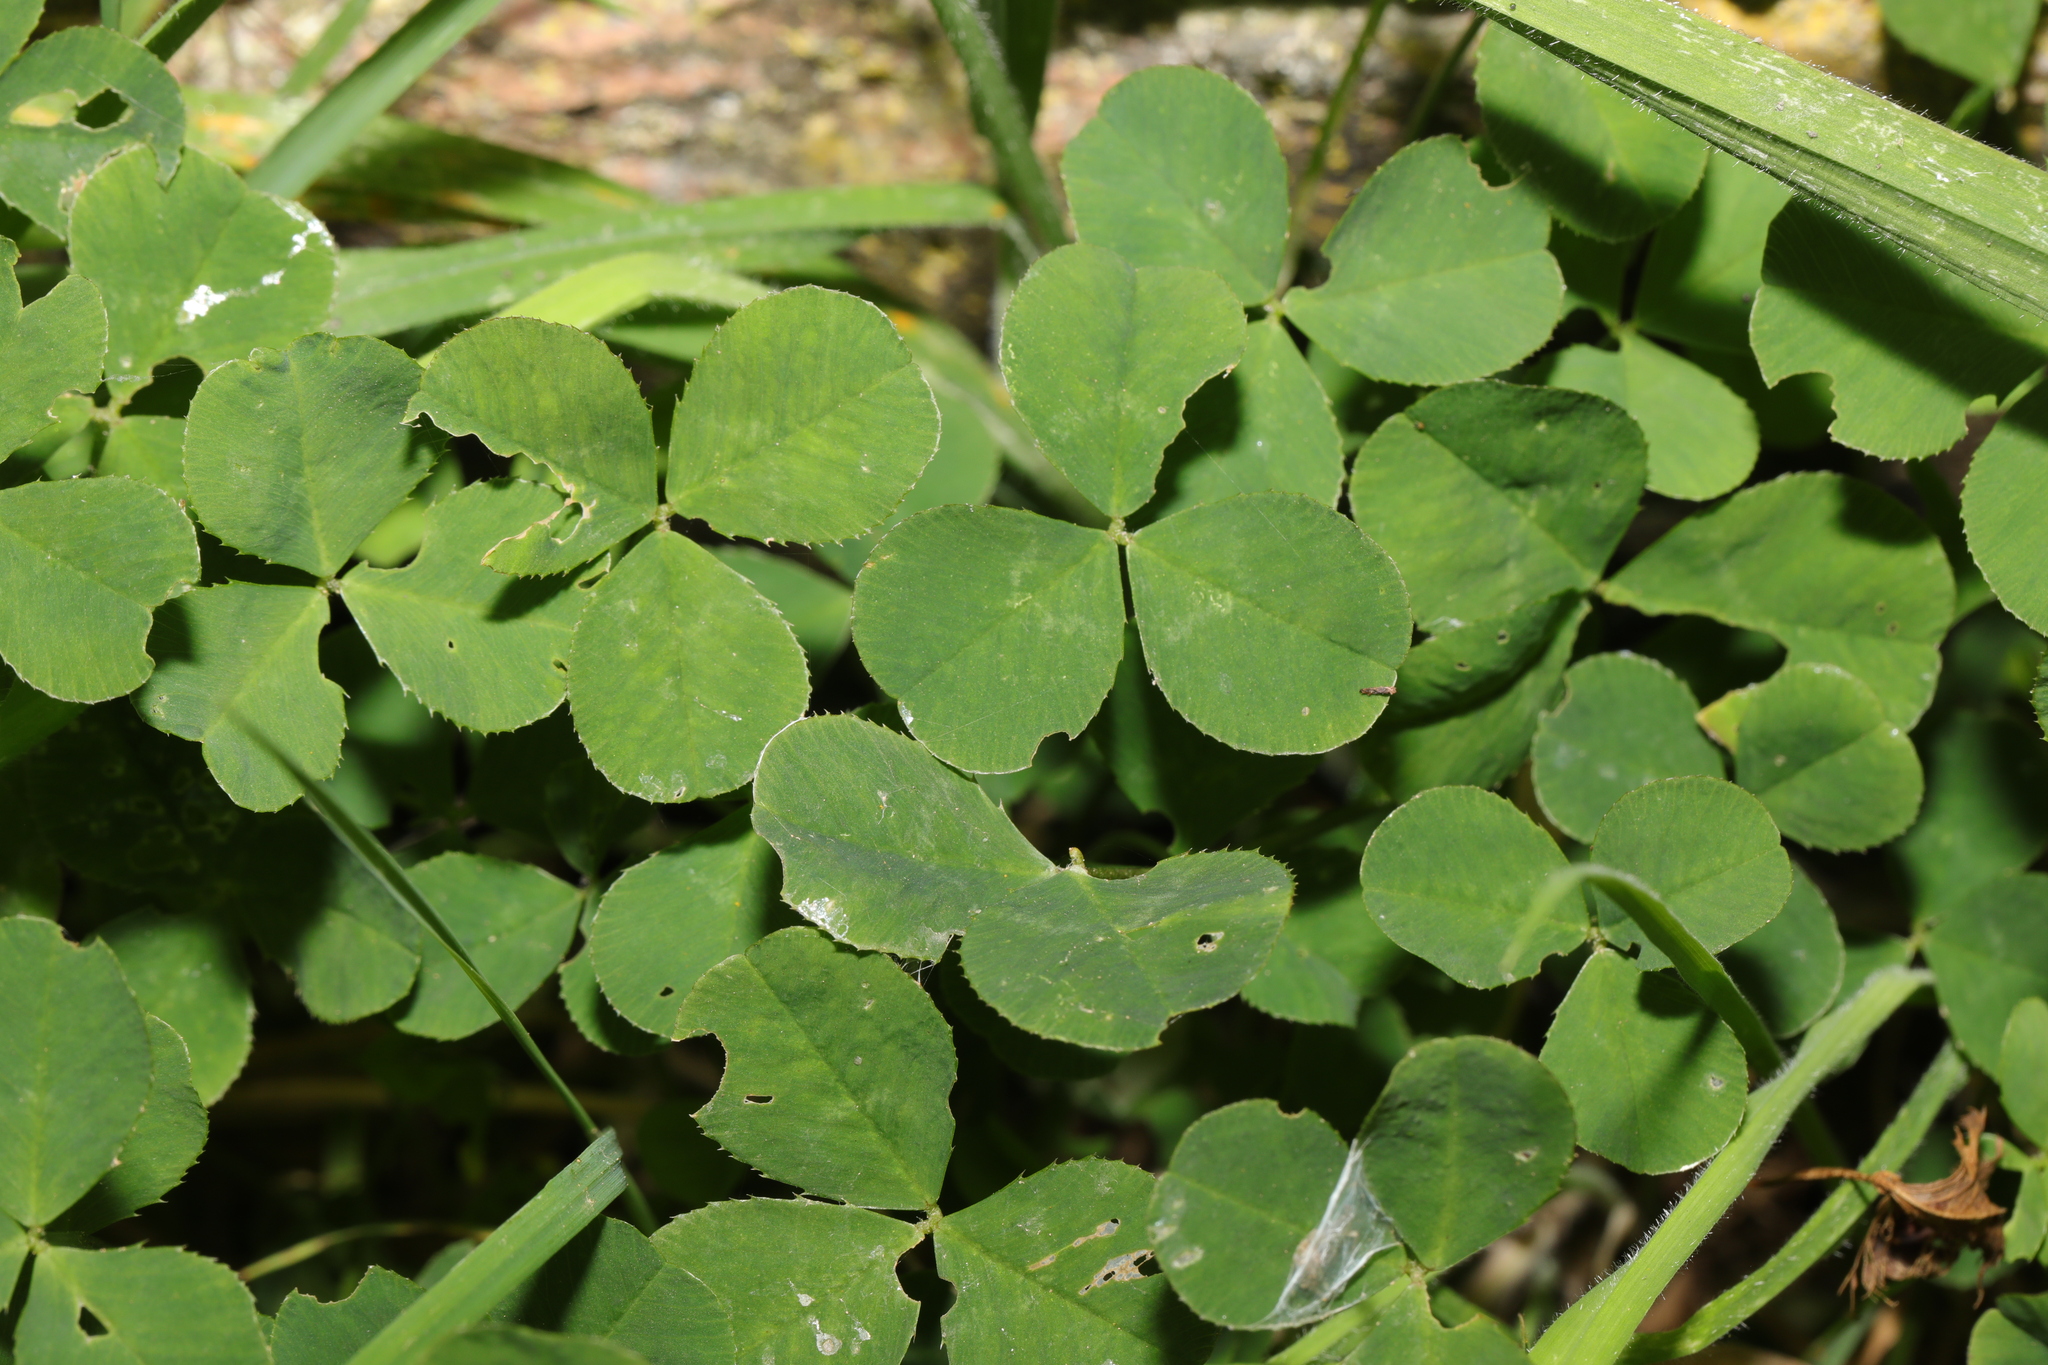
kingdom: Plantae
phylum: Tracheophyta
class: Magnoliopsida
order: Fabales
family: Fabaceae
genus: Trifolium
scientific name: Trifolium repens
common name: White clover
